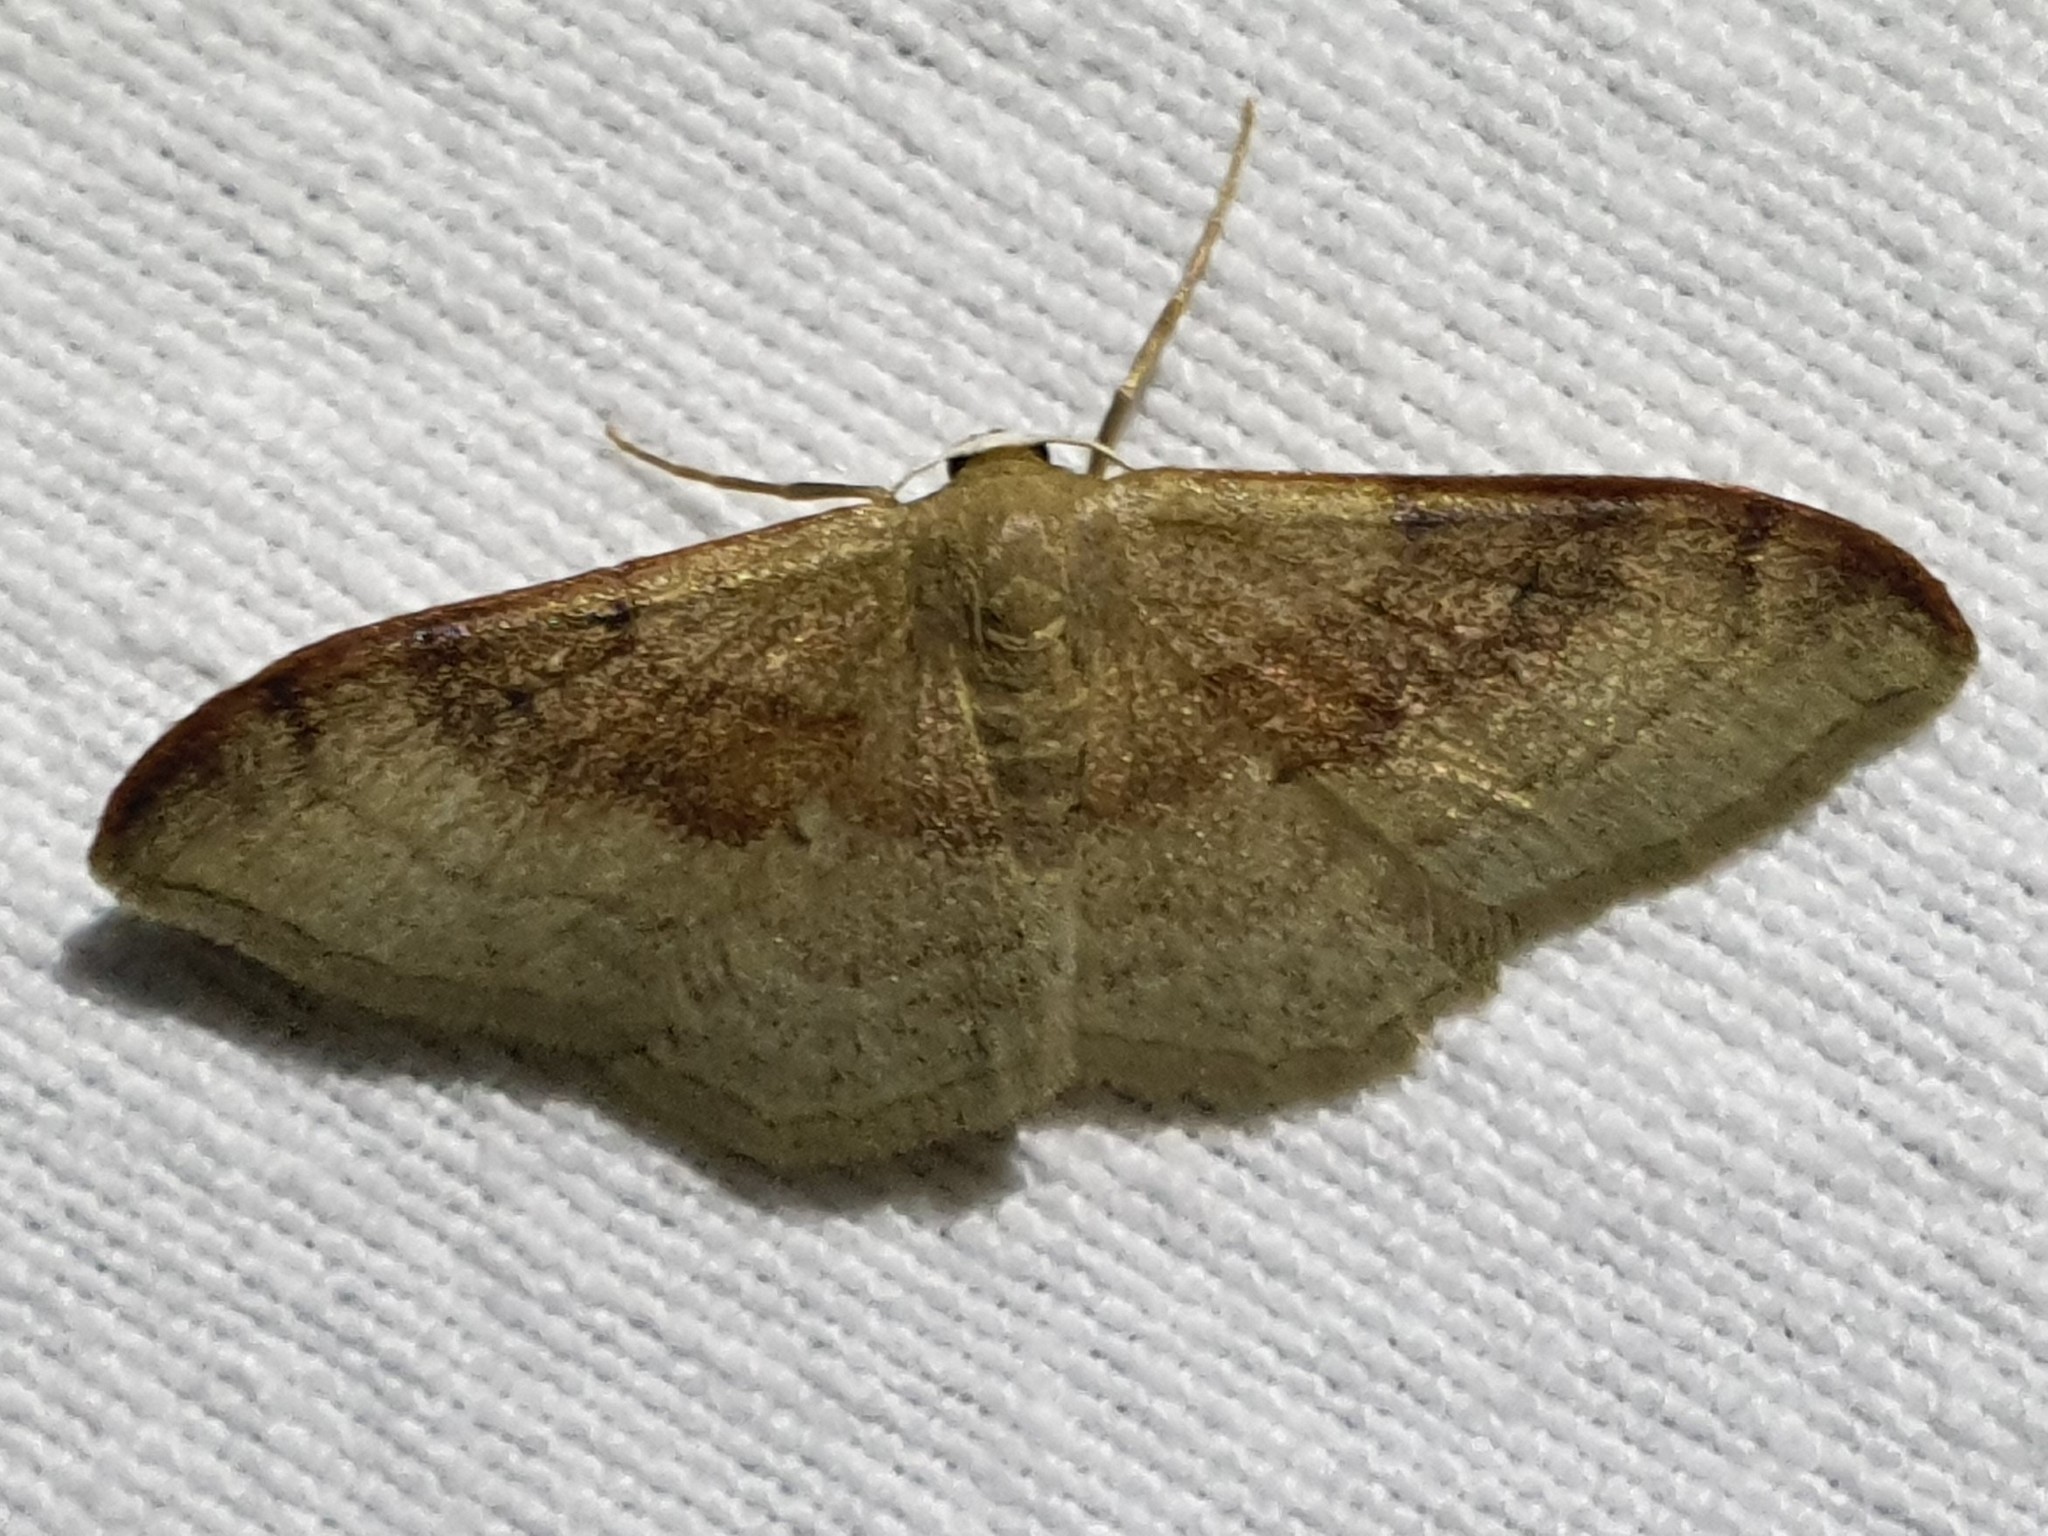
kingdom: Animalia
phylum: Arthropoda
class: Insecta
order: Lepidoptera
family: Geometridae
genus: Idaea
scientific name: Idaea degeneraria
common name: Portland ribbon wave
